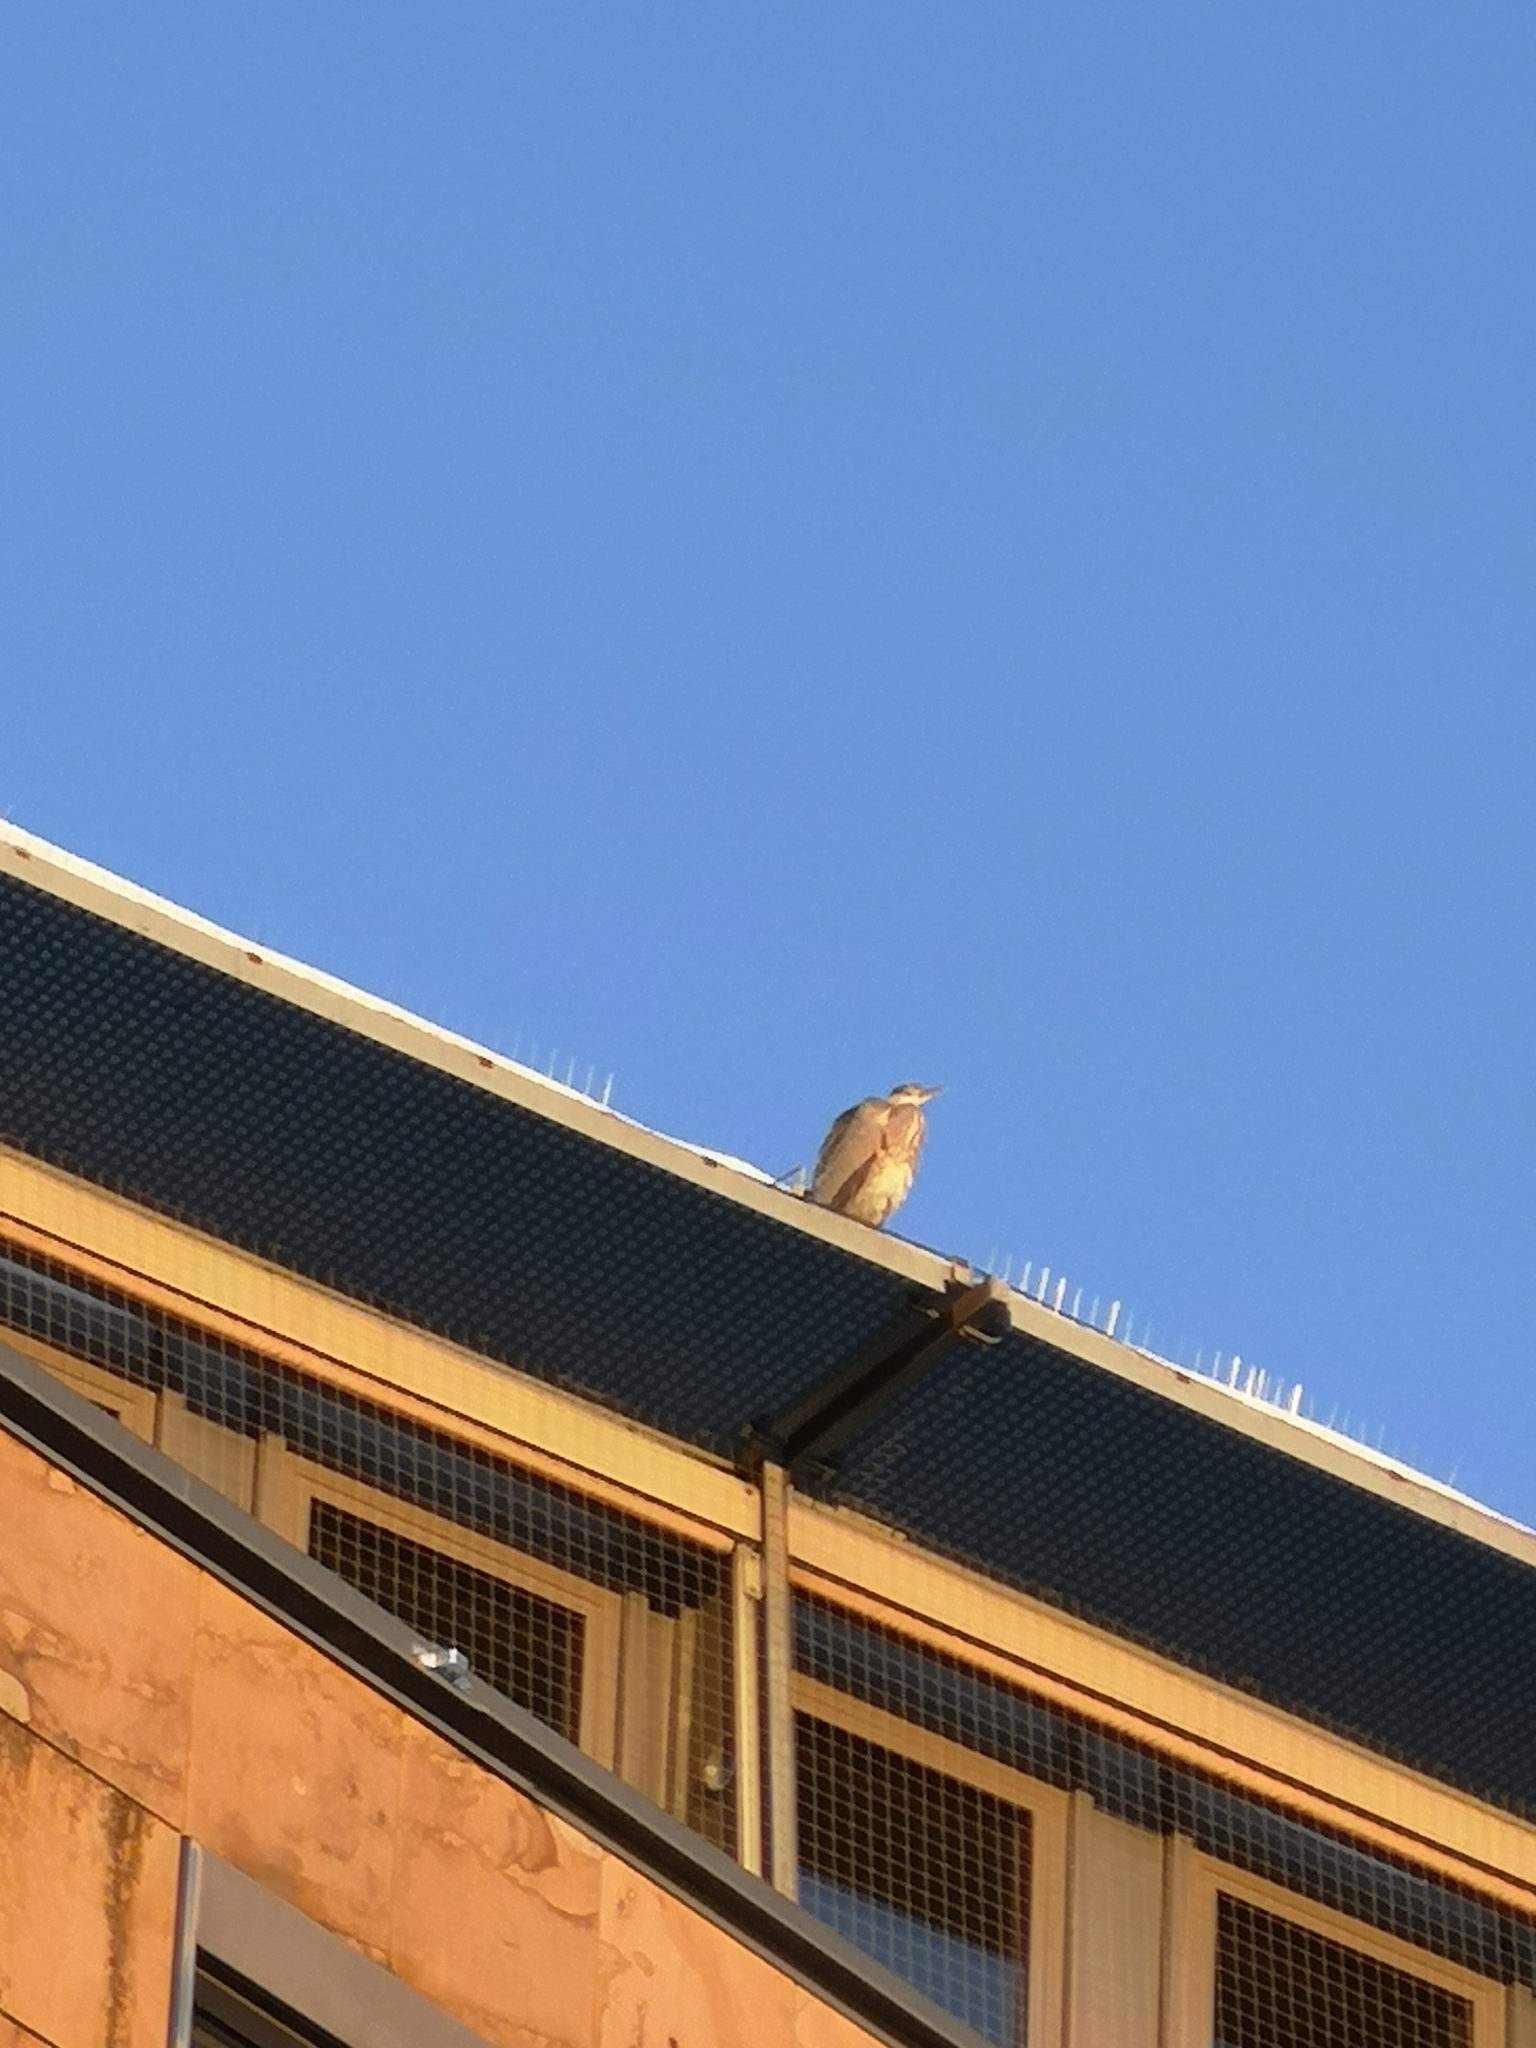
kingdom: Animalia
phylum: Chordata
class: Aves
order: Pelecaniformes
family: Ardeidae
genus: Ardea
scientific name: Ardea cinerea
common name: Grey heron
